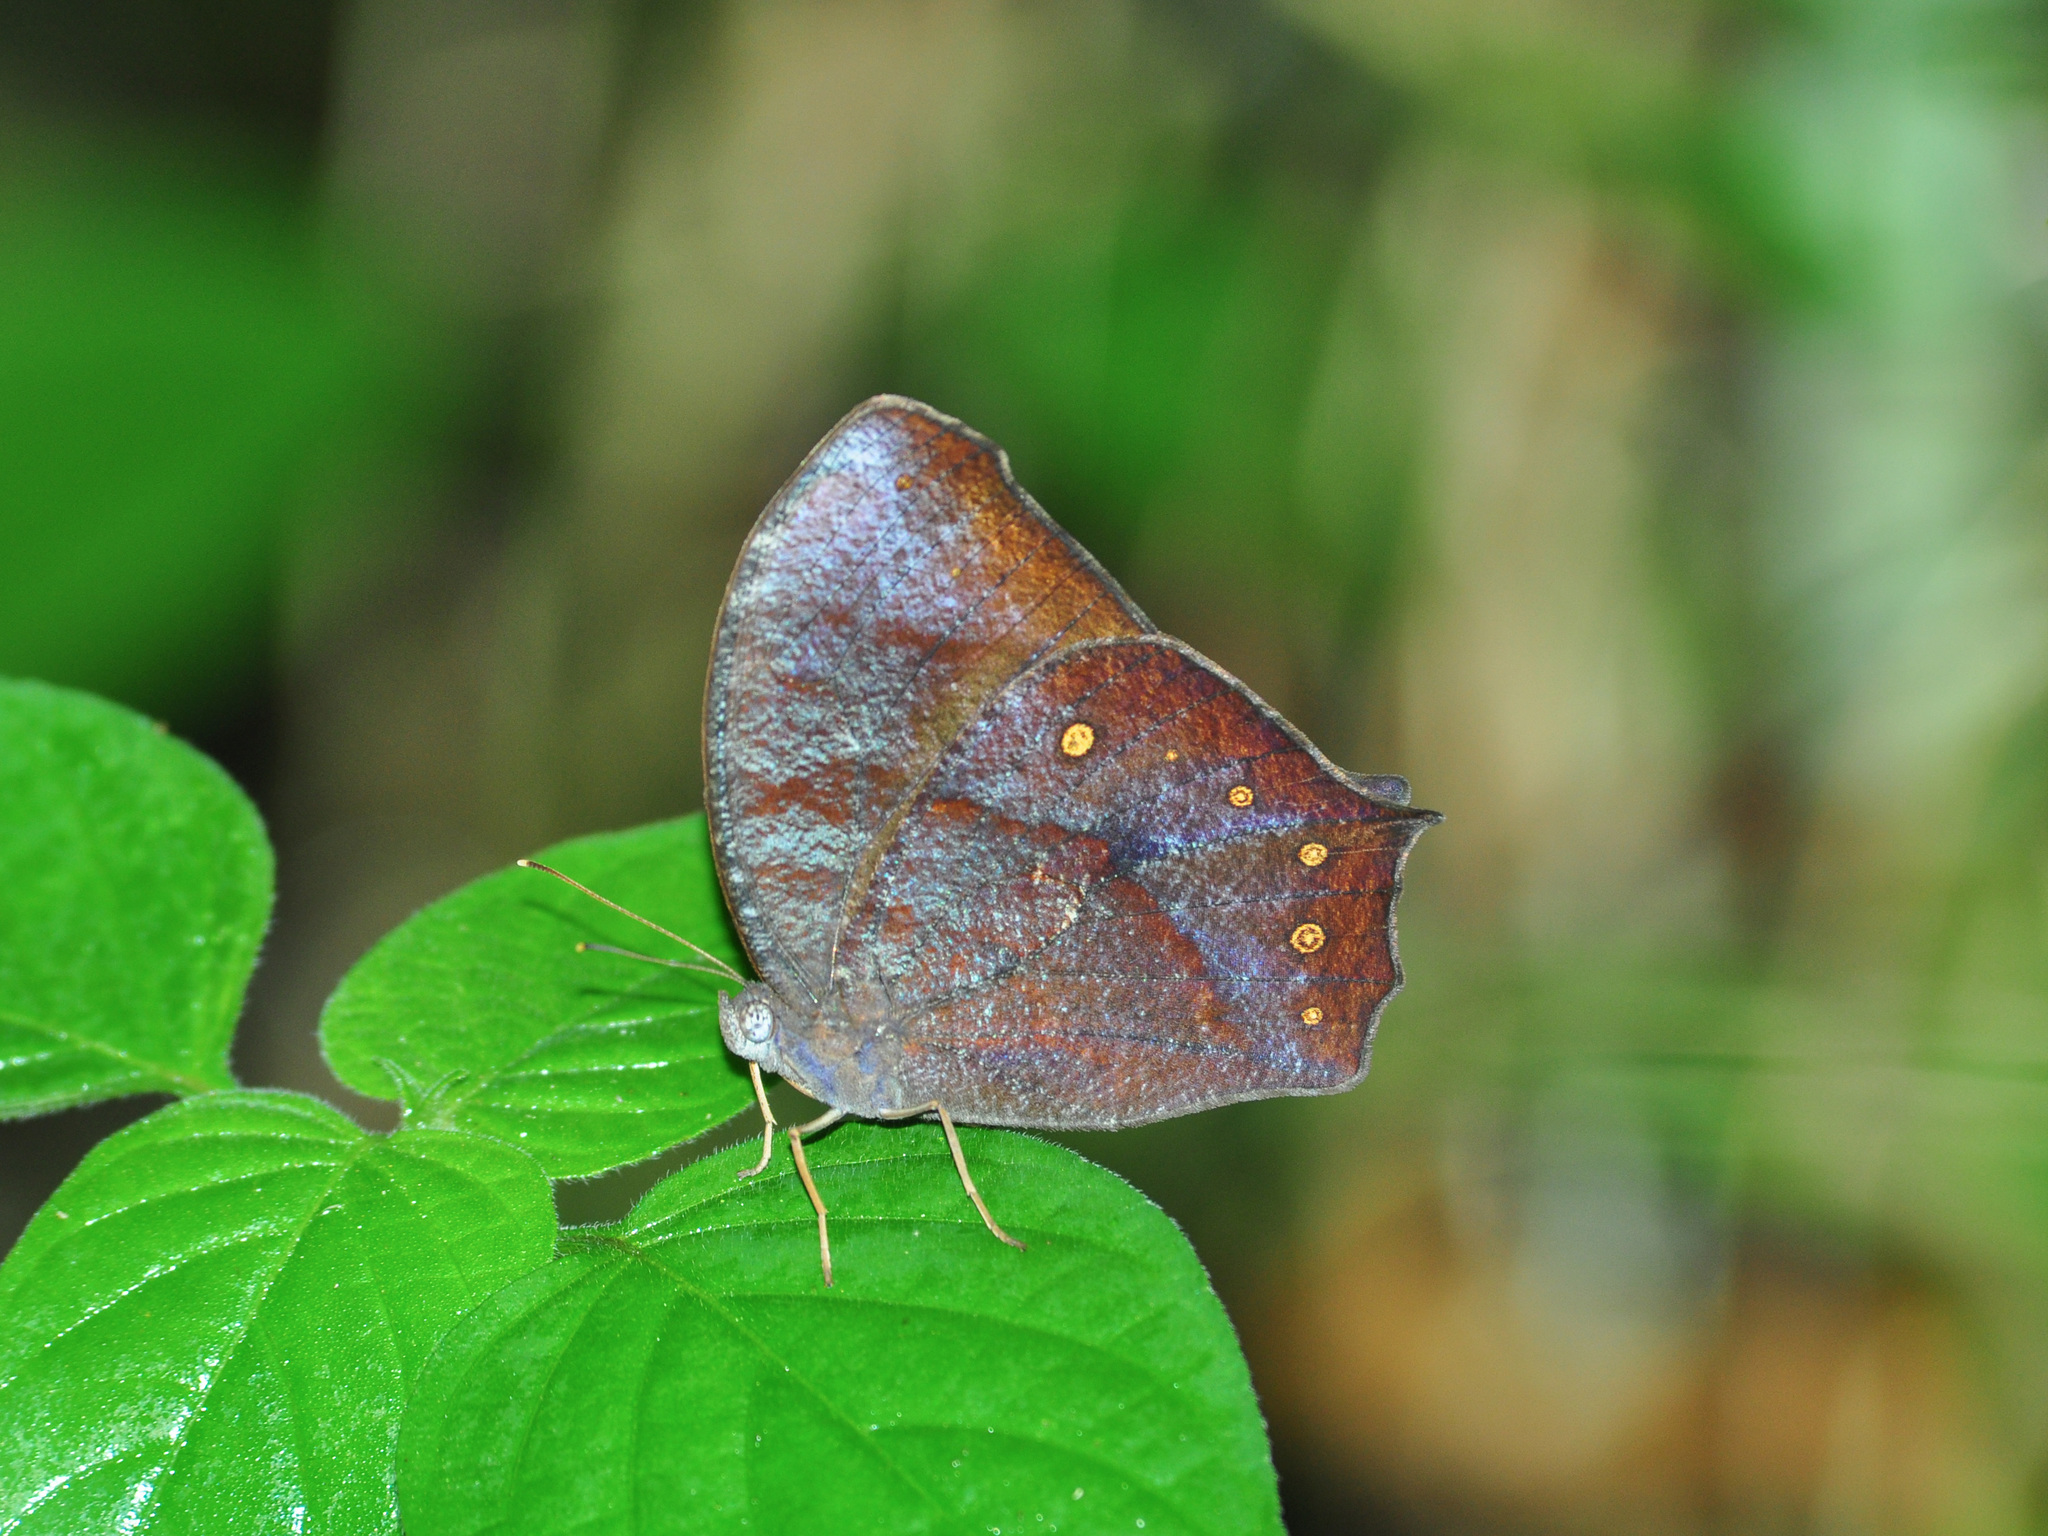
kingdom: Animalia
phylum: Arthropoda
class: Insecta
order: Lepidoptera
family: Nymphalidae
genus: Melanitis
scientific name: Melanitis phedima
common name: Dark evening brown
